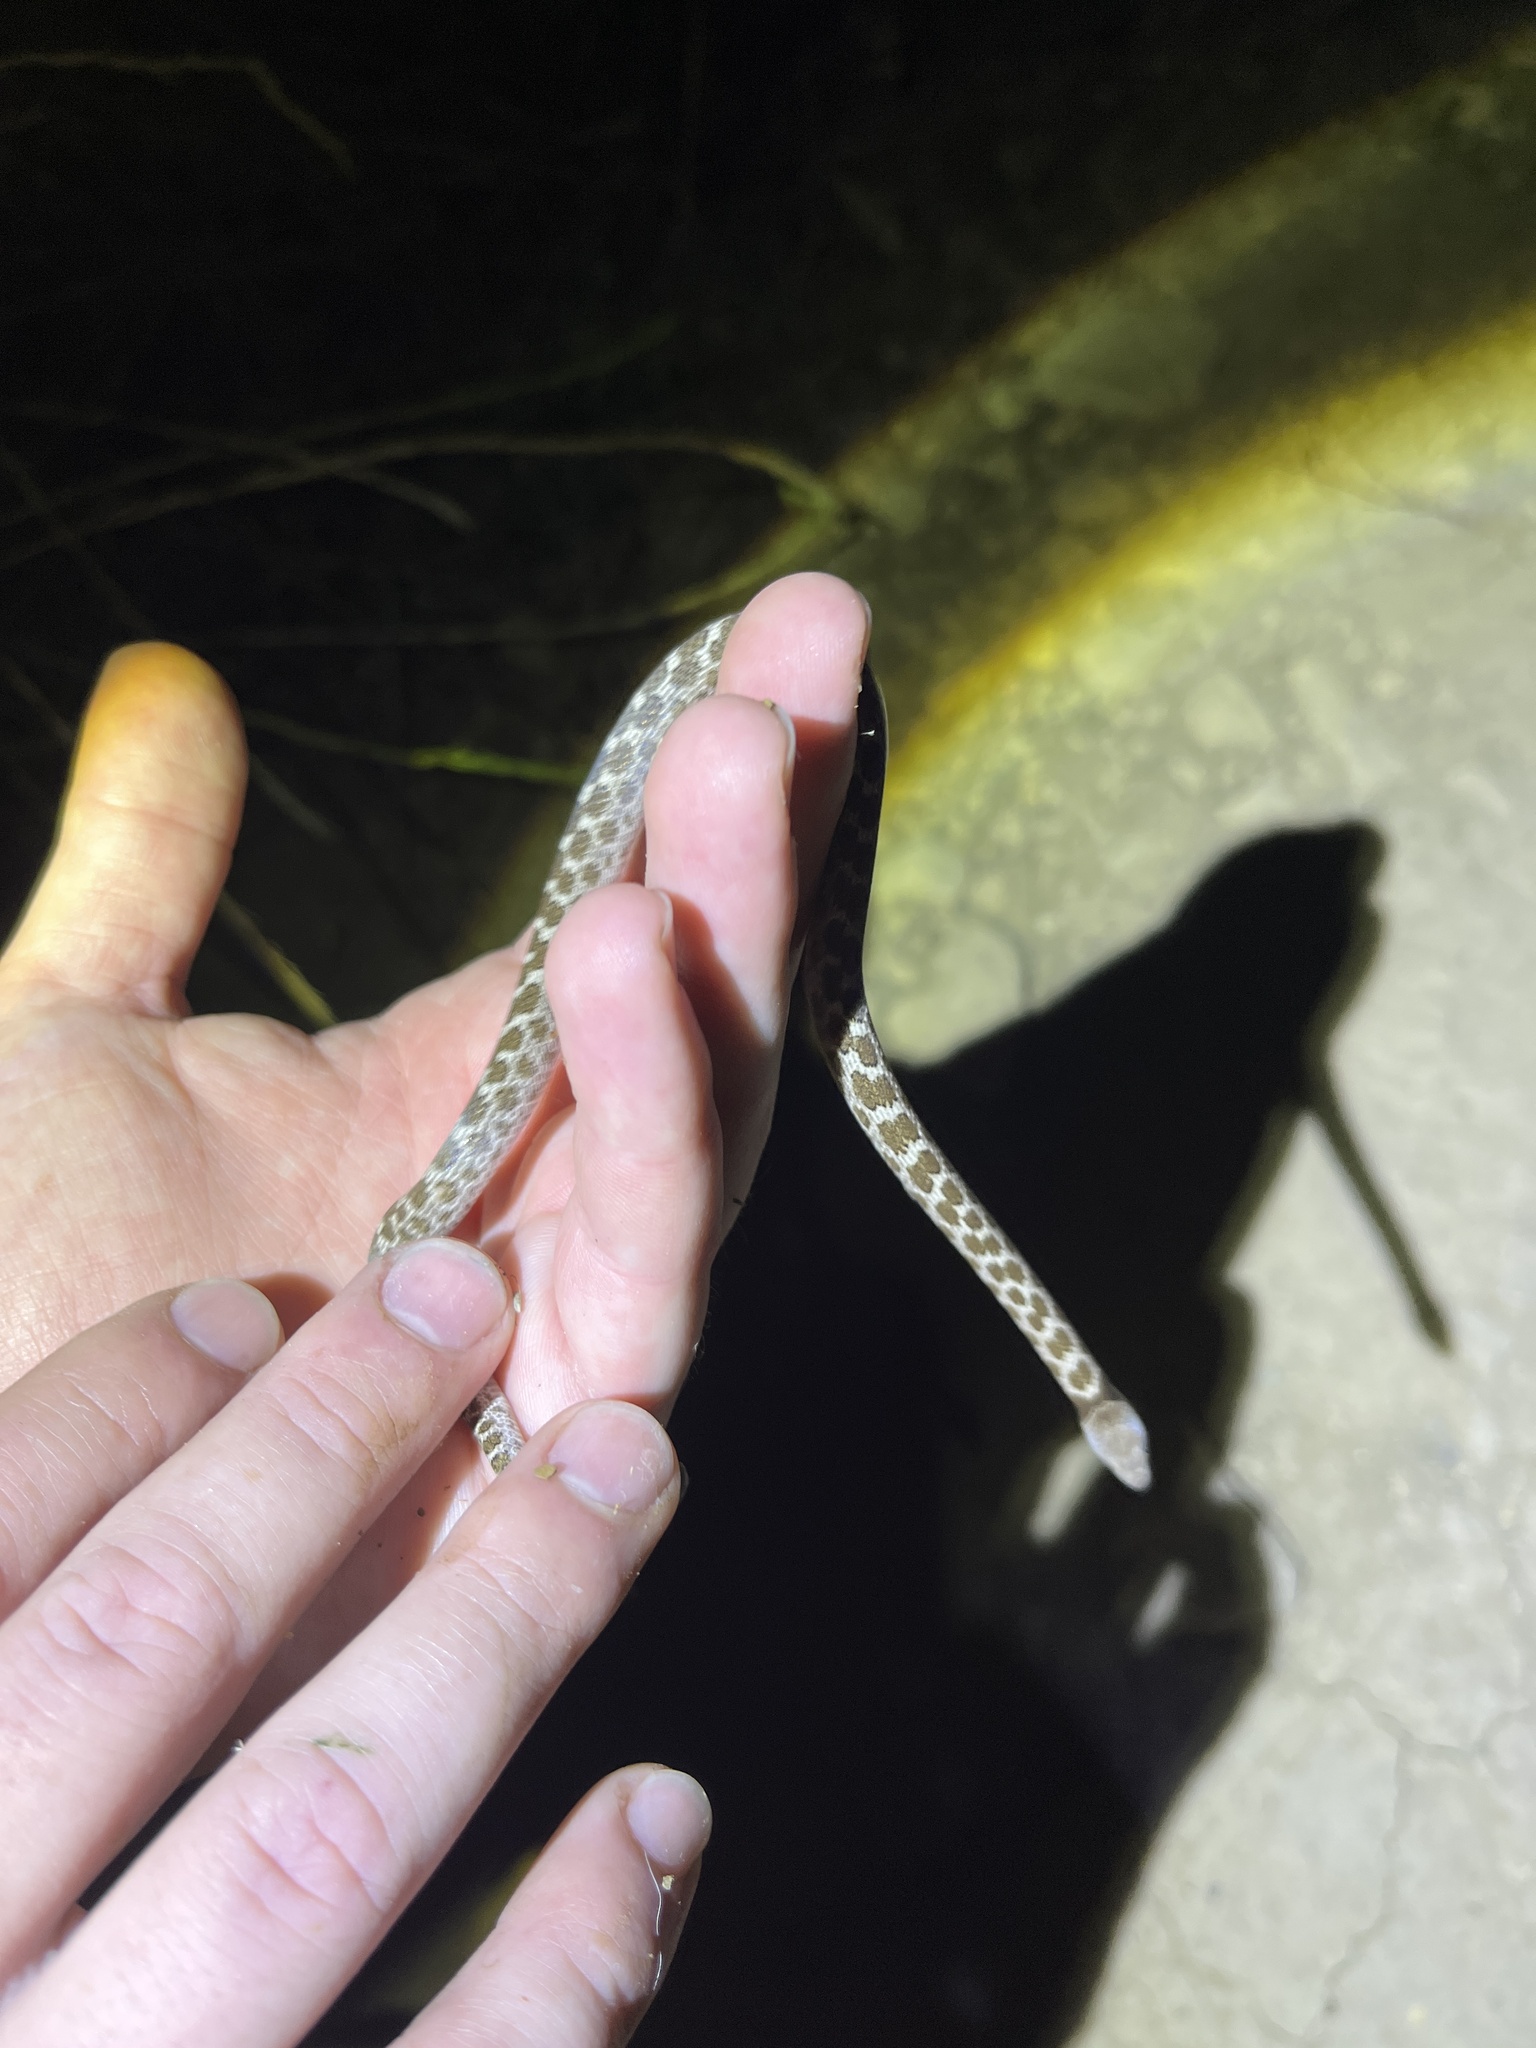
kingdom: Animalia
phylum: Chordata
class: Squamata
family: Colubridae
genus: Hypsiglena
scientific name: Hypsiglena ochrorhynchus
